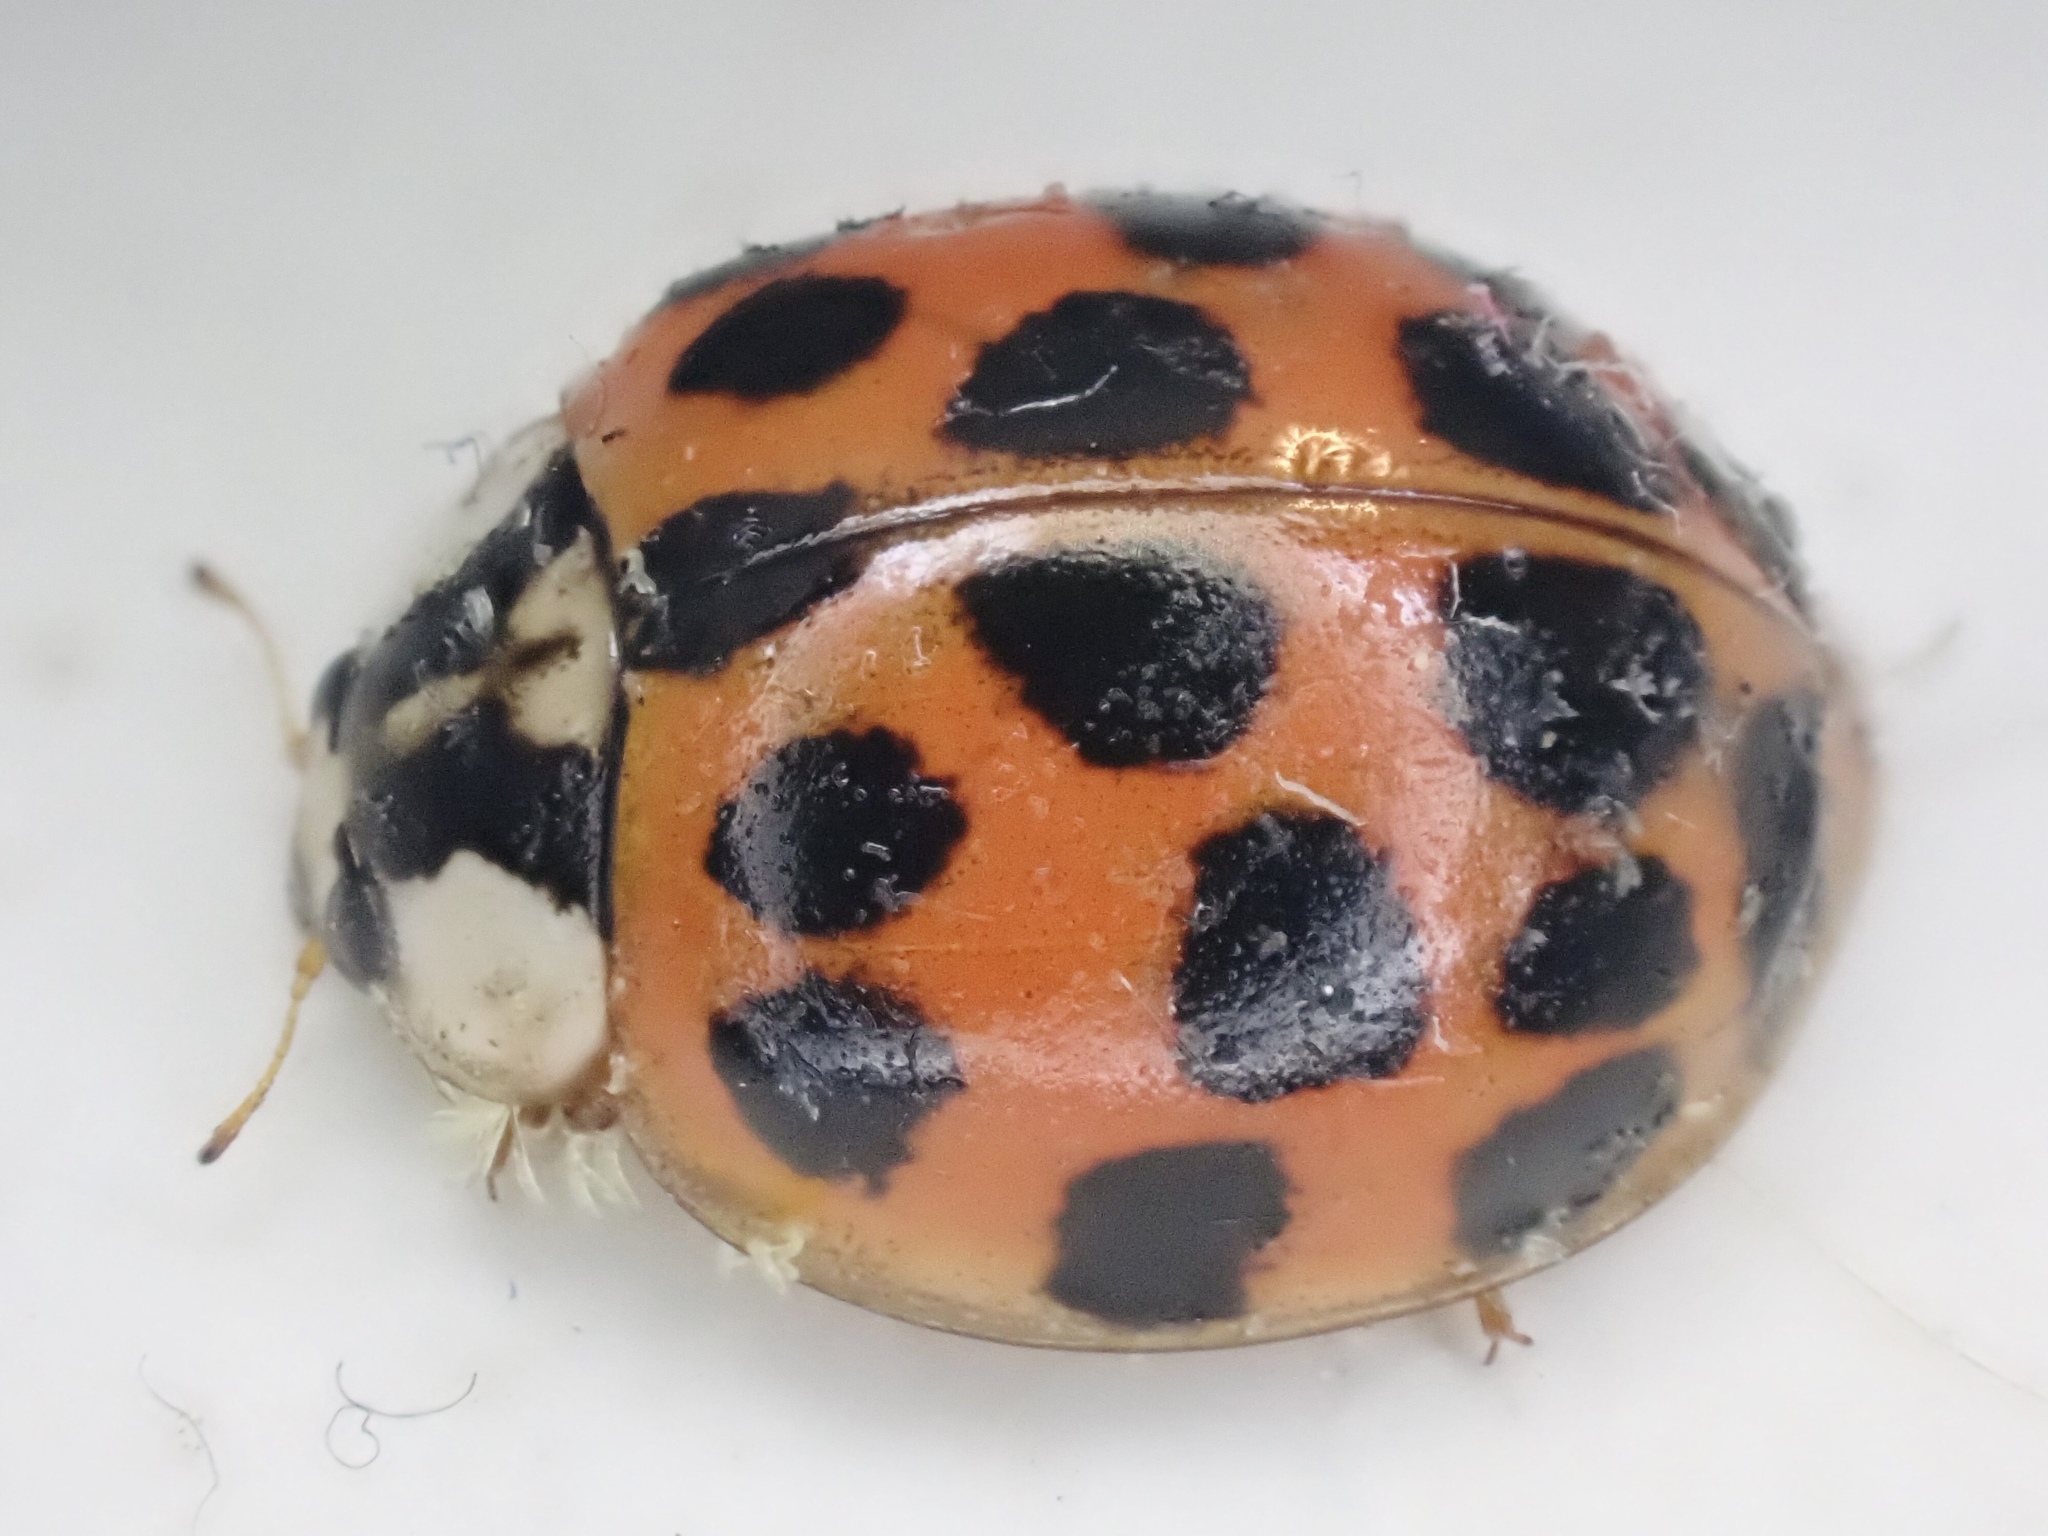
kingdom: Animalia
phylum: Arthropoda
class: Insecta
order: Coleoptera
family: Coccinellidae
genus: Harmonia
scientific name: Harmonia axyridis
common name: Harlequin ladybird
